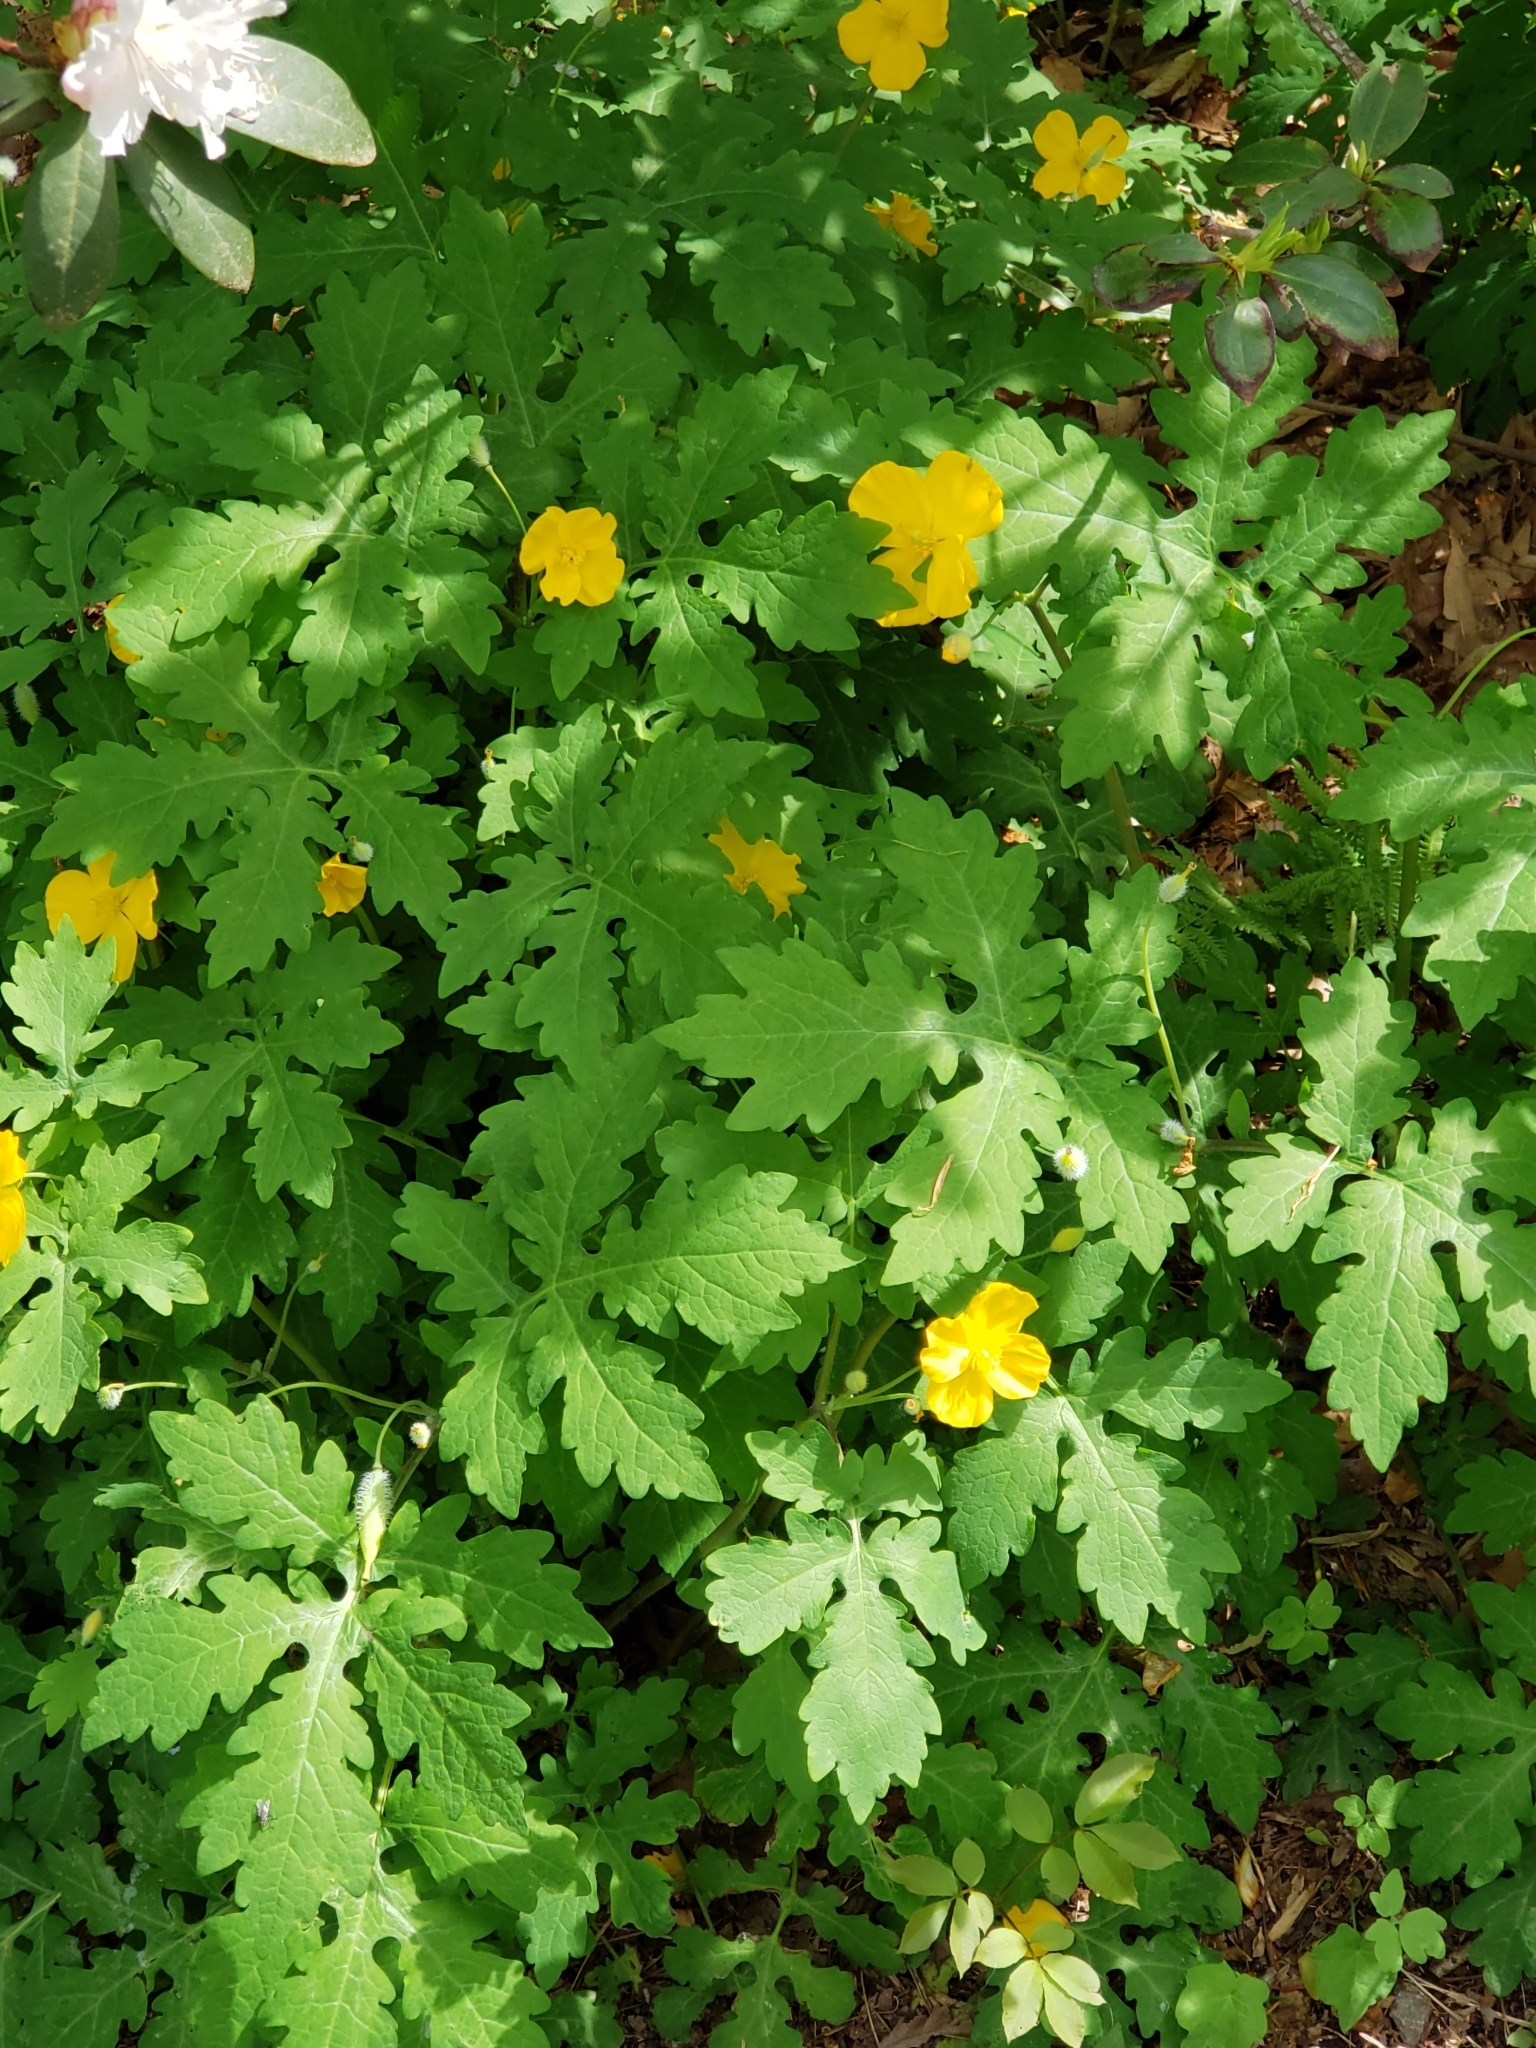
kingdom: Plantae
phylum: Tracheophyta
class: Magnoliopsida
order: Ranunculales
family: Papaveraceae
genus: Stylophorum
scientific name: Stylophorum diphyllum
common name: Celandine poppy
